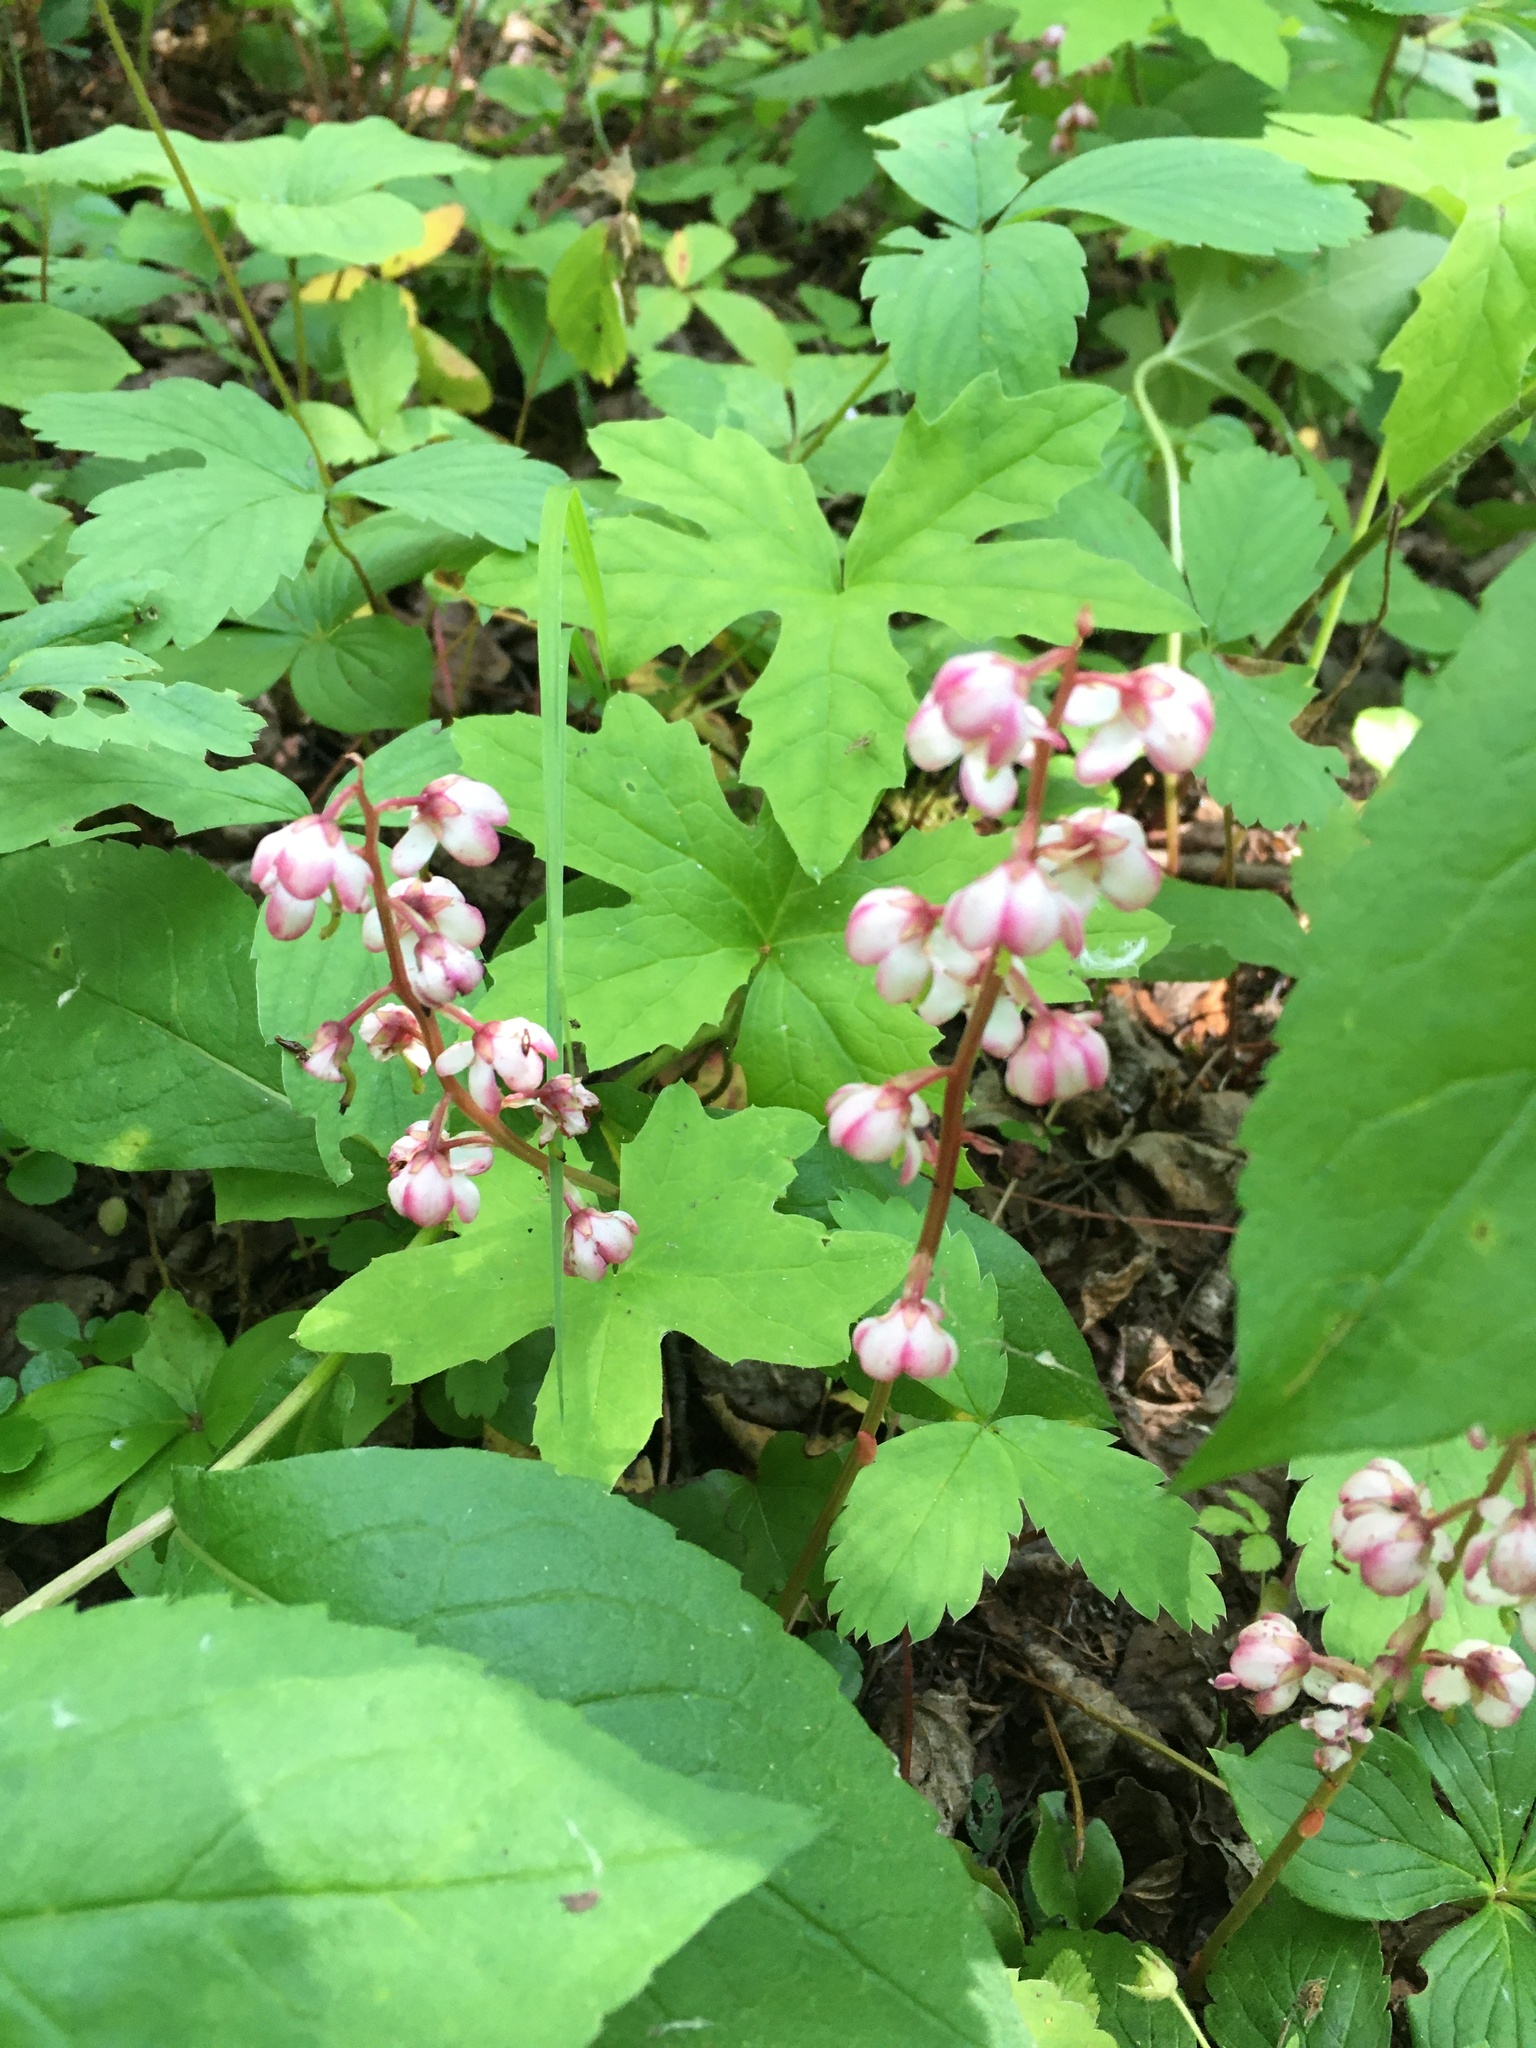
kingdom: Plantae
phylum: Tracheophyta
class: Magnoliopsida
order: Ericales
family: Ericaceae
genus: Pyrola
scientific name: Pyrola asarifolia
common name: Bog wintergreen
